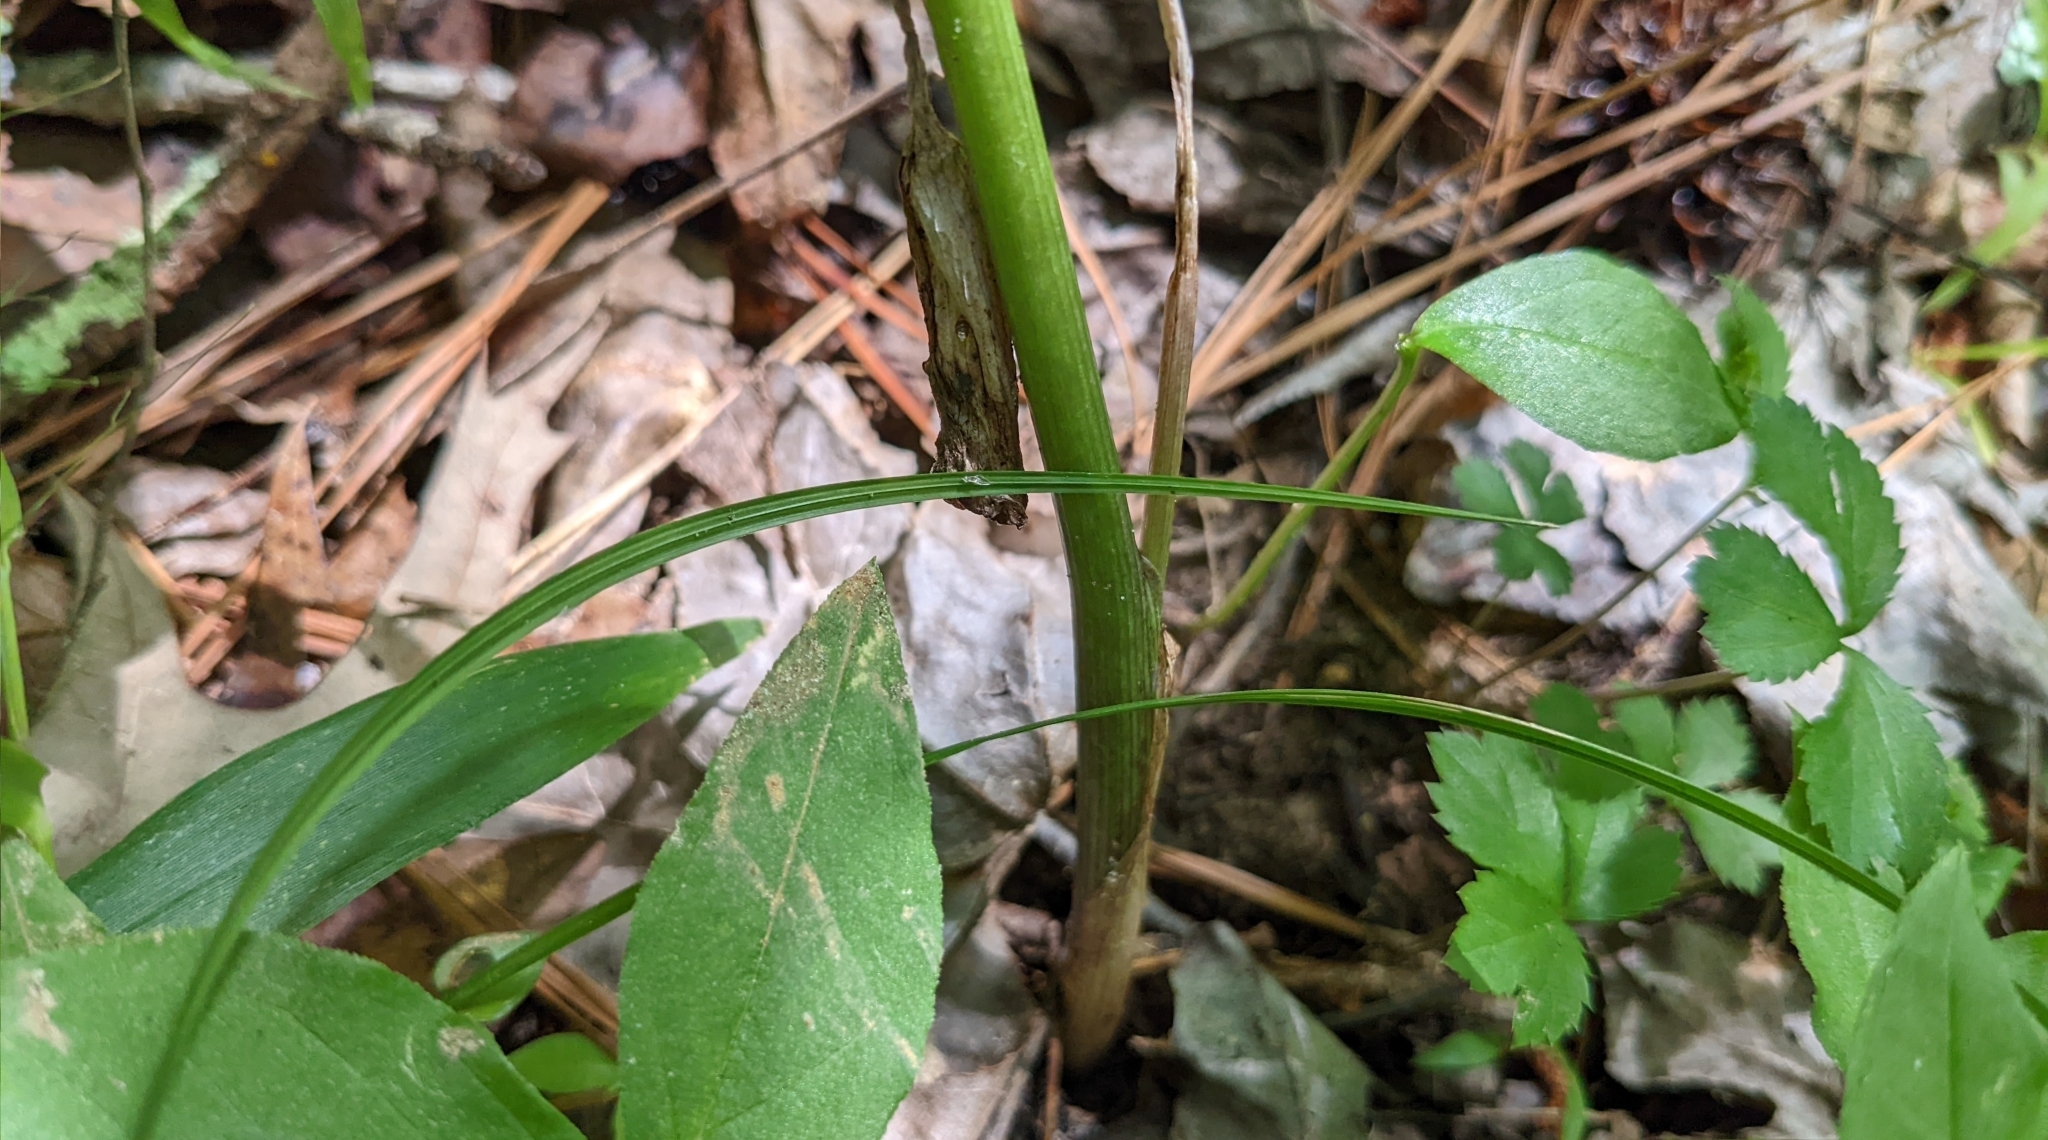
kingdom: Plantae
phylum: Tracheophyta
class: Liliopsida
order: Alismatales
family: Araceae
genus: Arisaema
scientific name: Arisaema triphyllum
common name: Jack-in-the-pulpit
